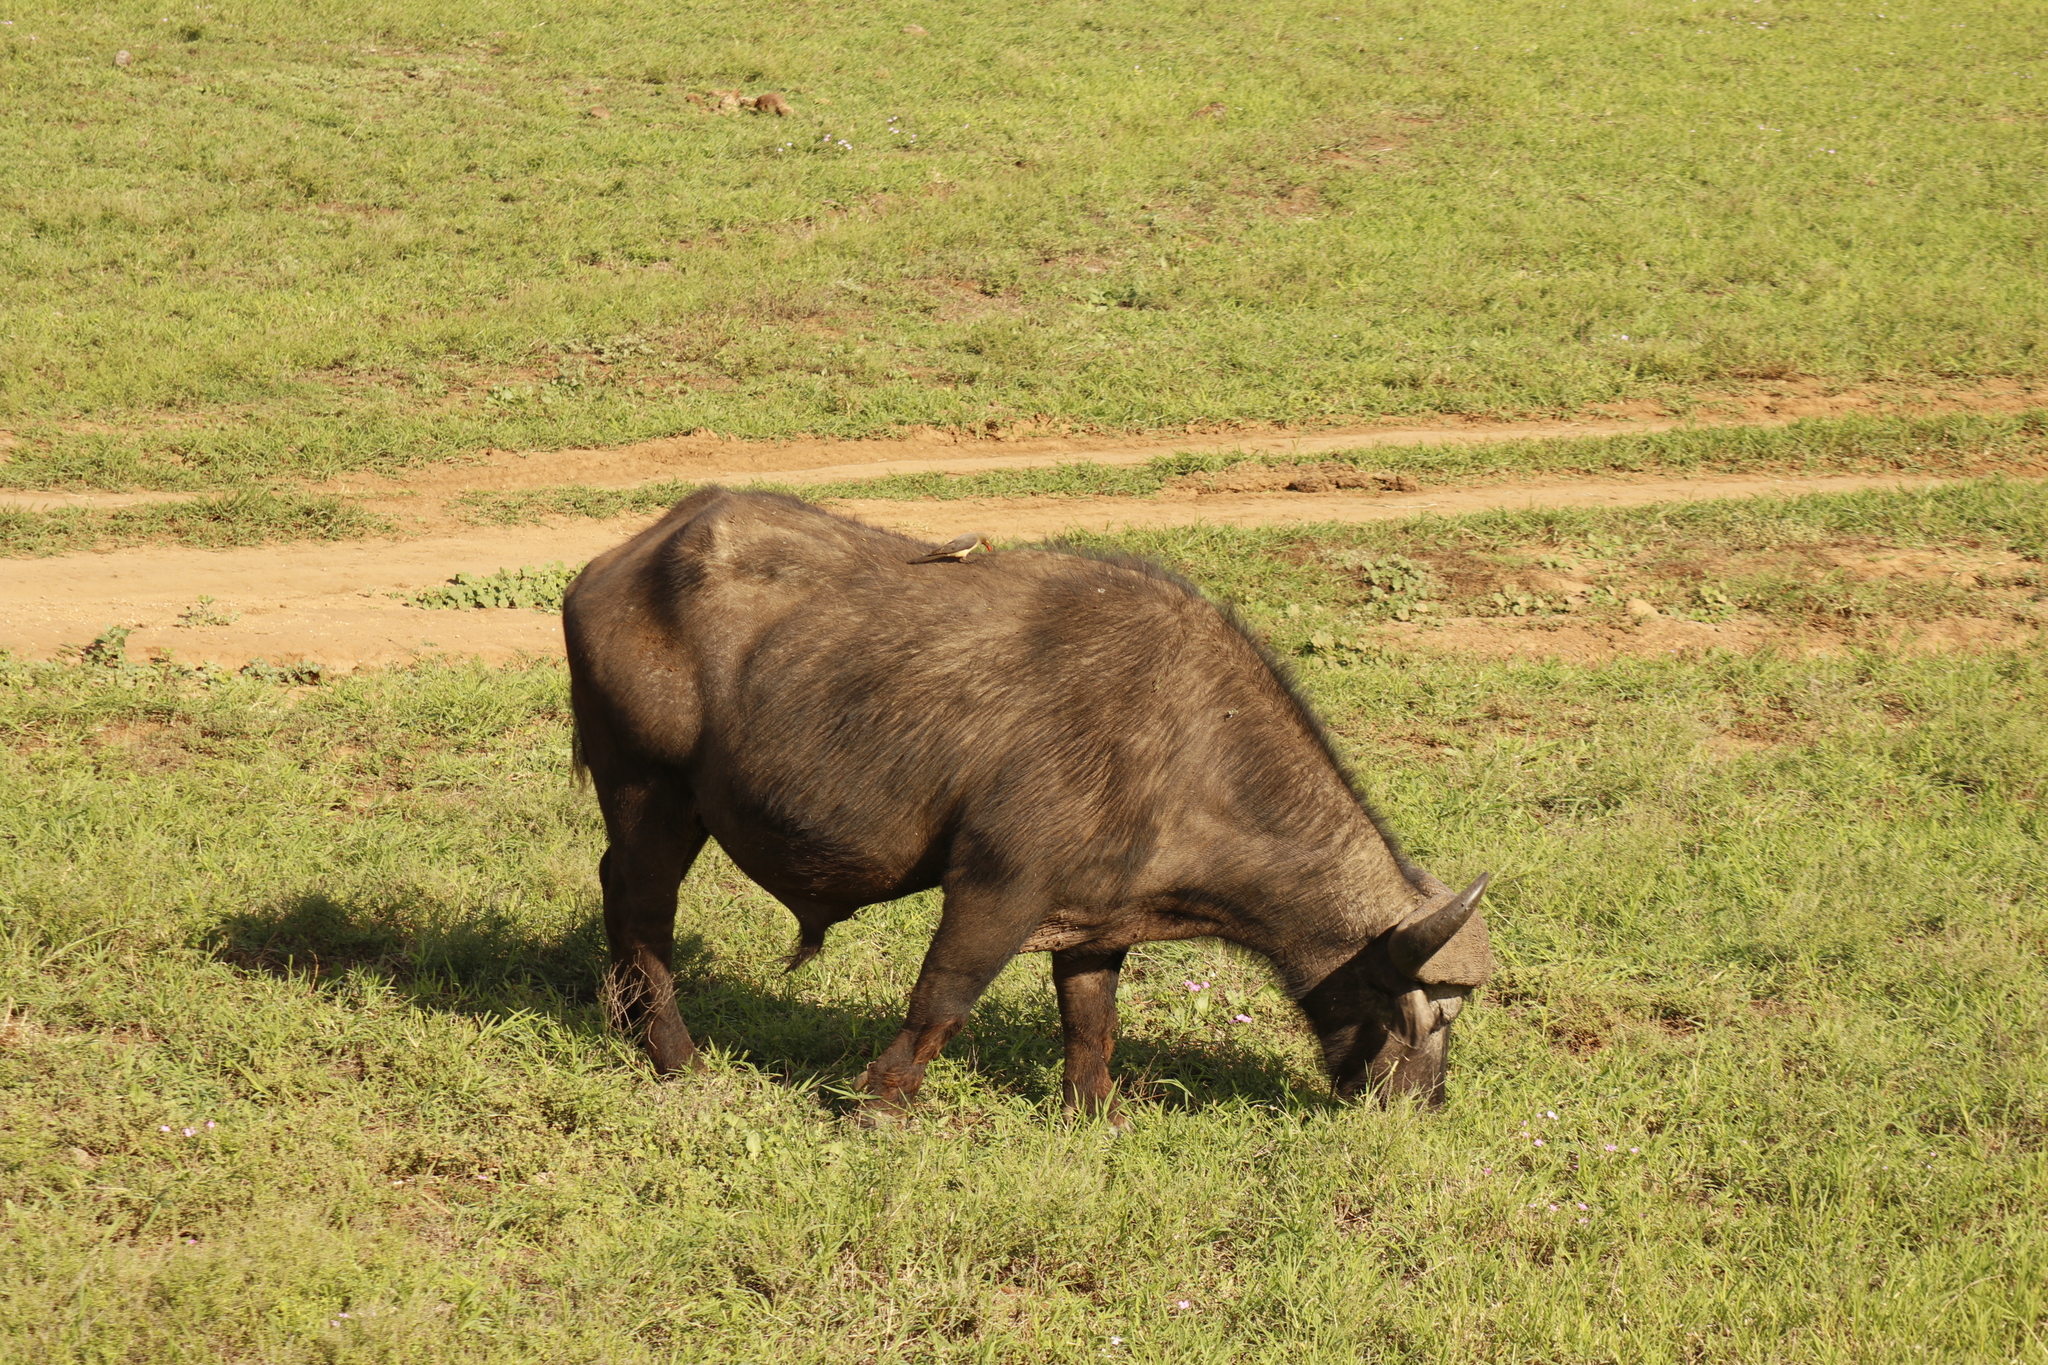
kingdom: Animalia
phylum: Chordata
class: Mammalia
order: Artiodactyla
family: Bovidae
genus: Syncerus
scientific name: Syncerus caffer
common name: African buffalo
